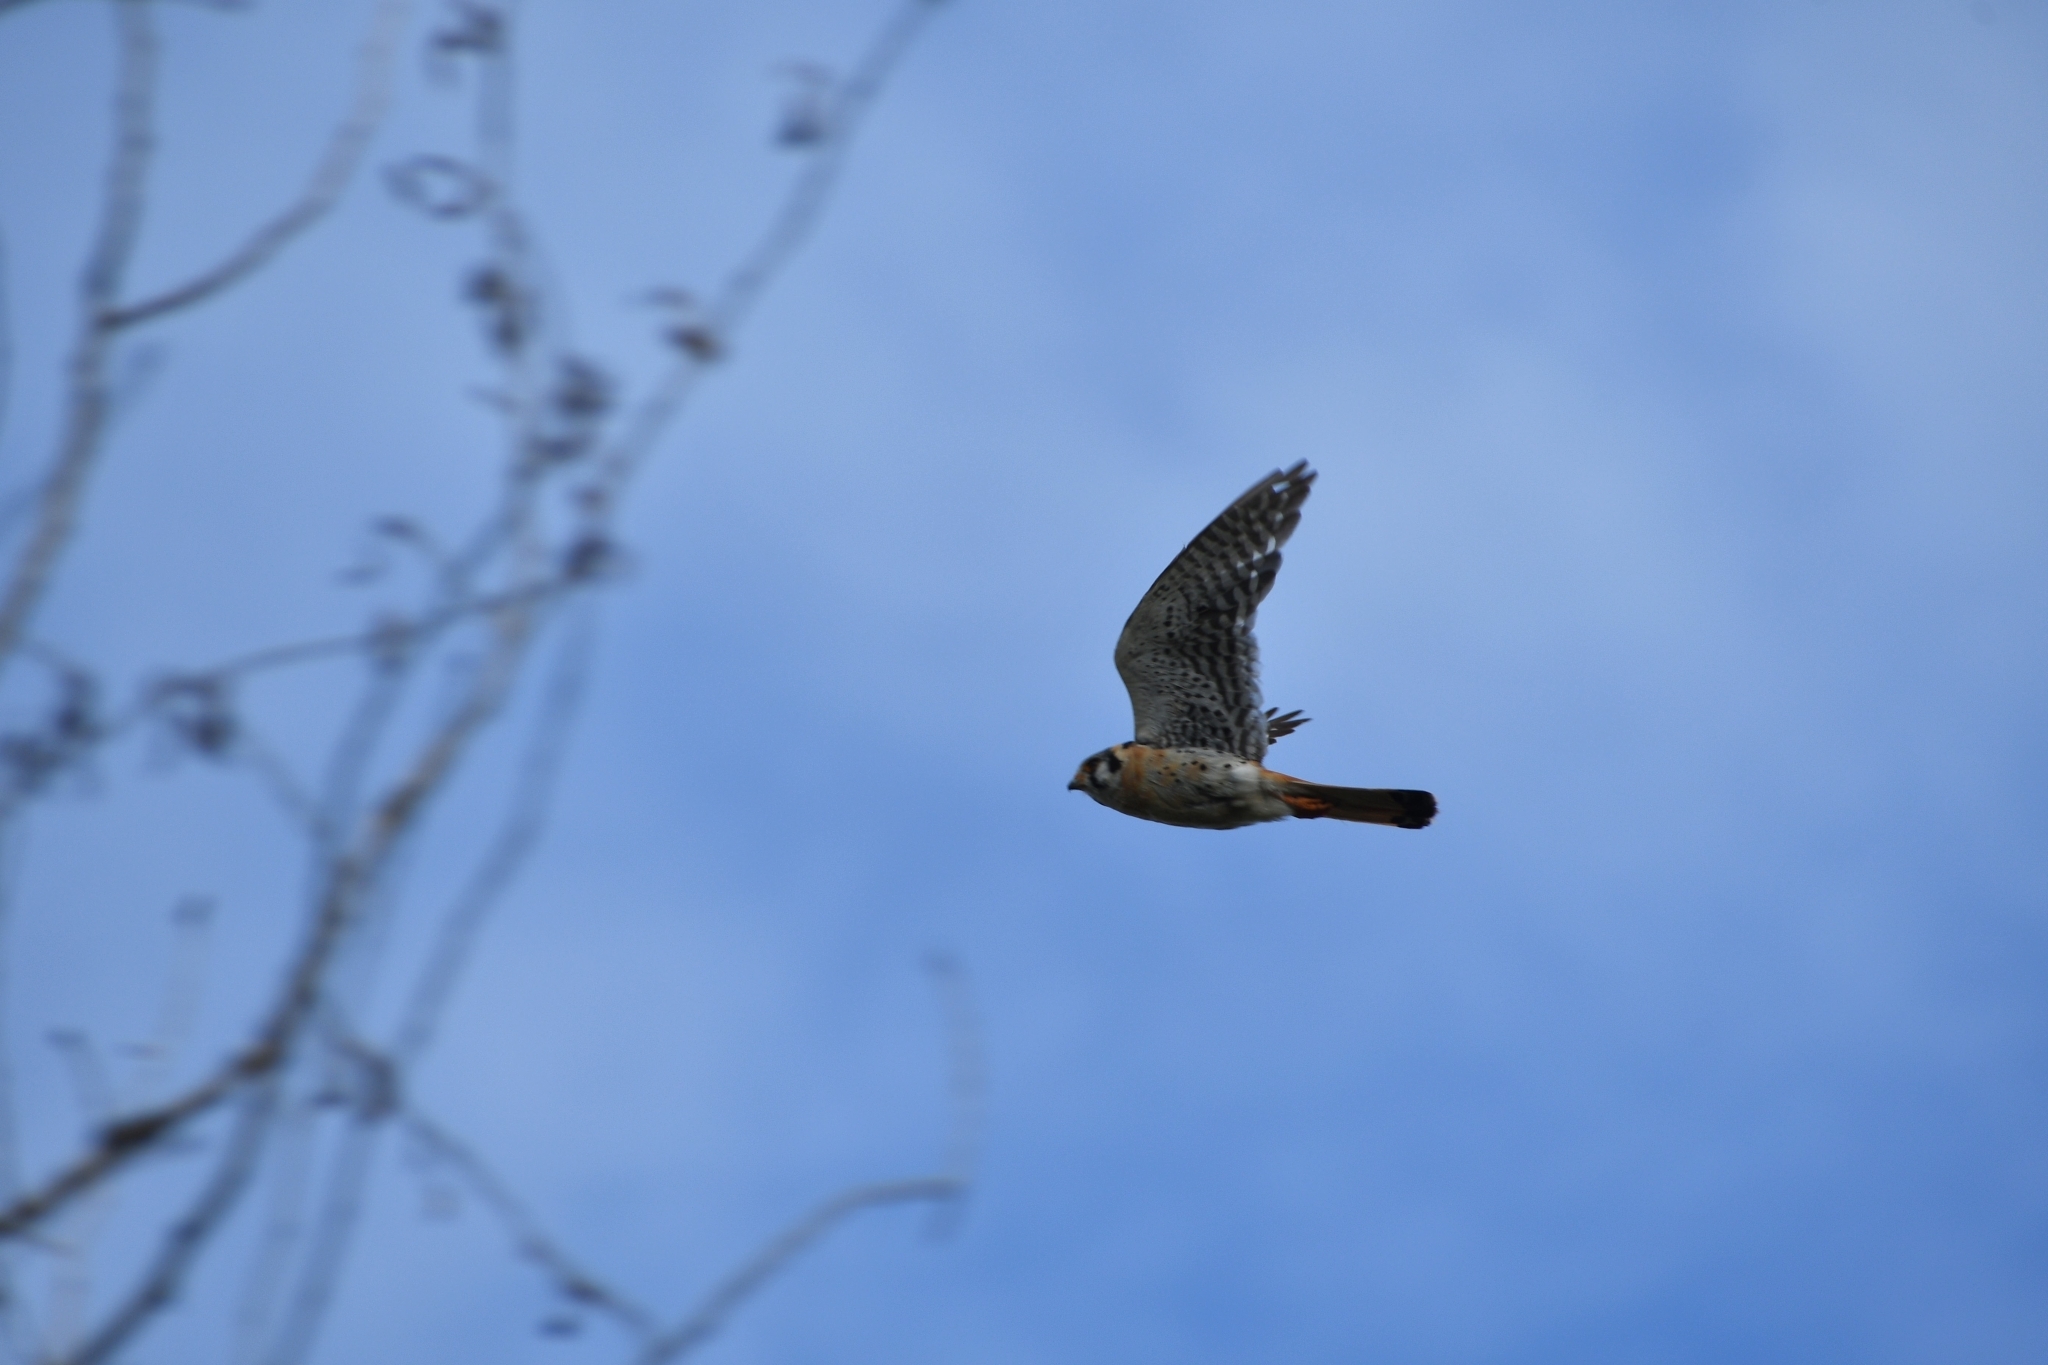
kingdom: Animalia
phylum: Chordata
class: Aves
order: Falconiformes
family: Falconidae
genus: Falco
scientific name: Falco sparverius
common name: American kestrel
